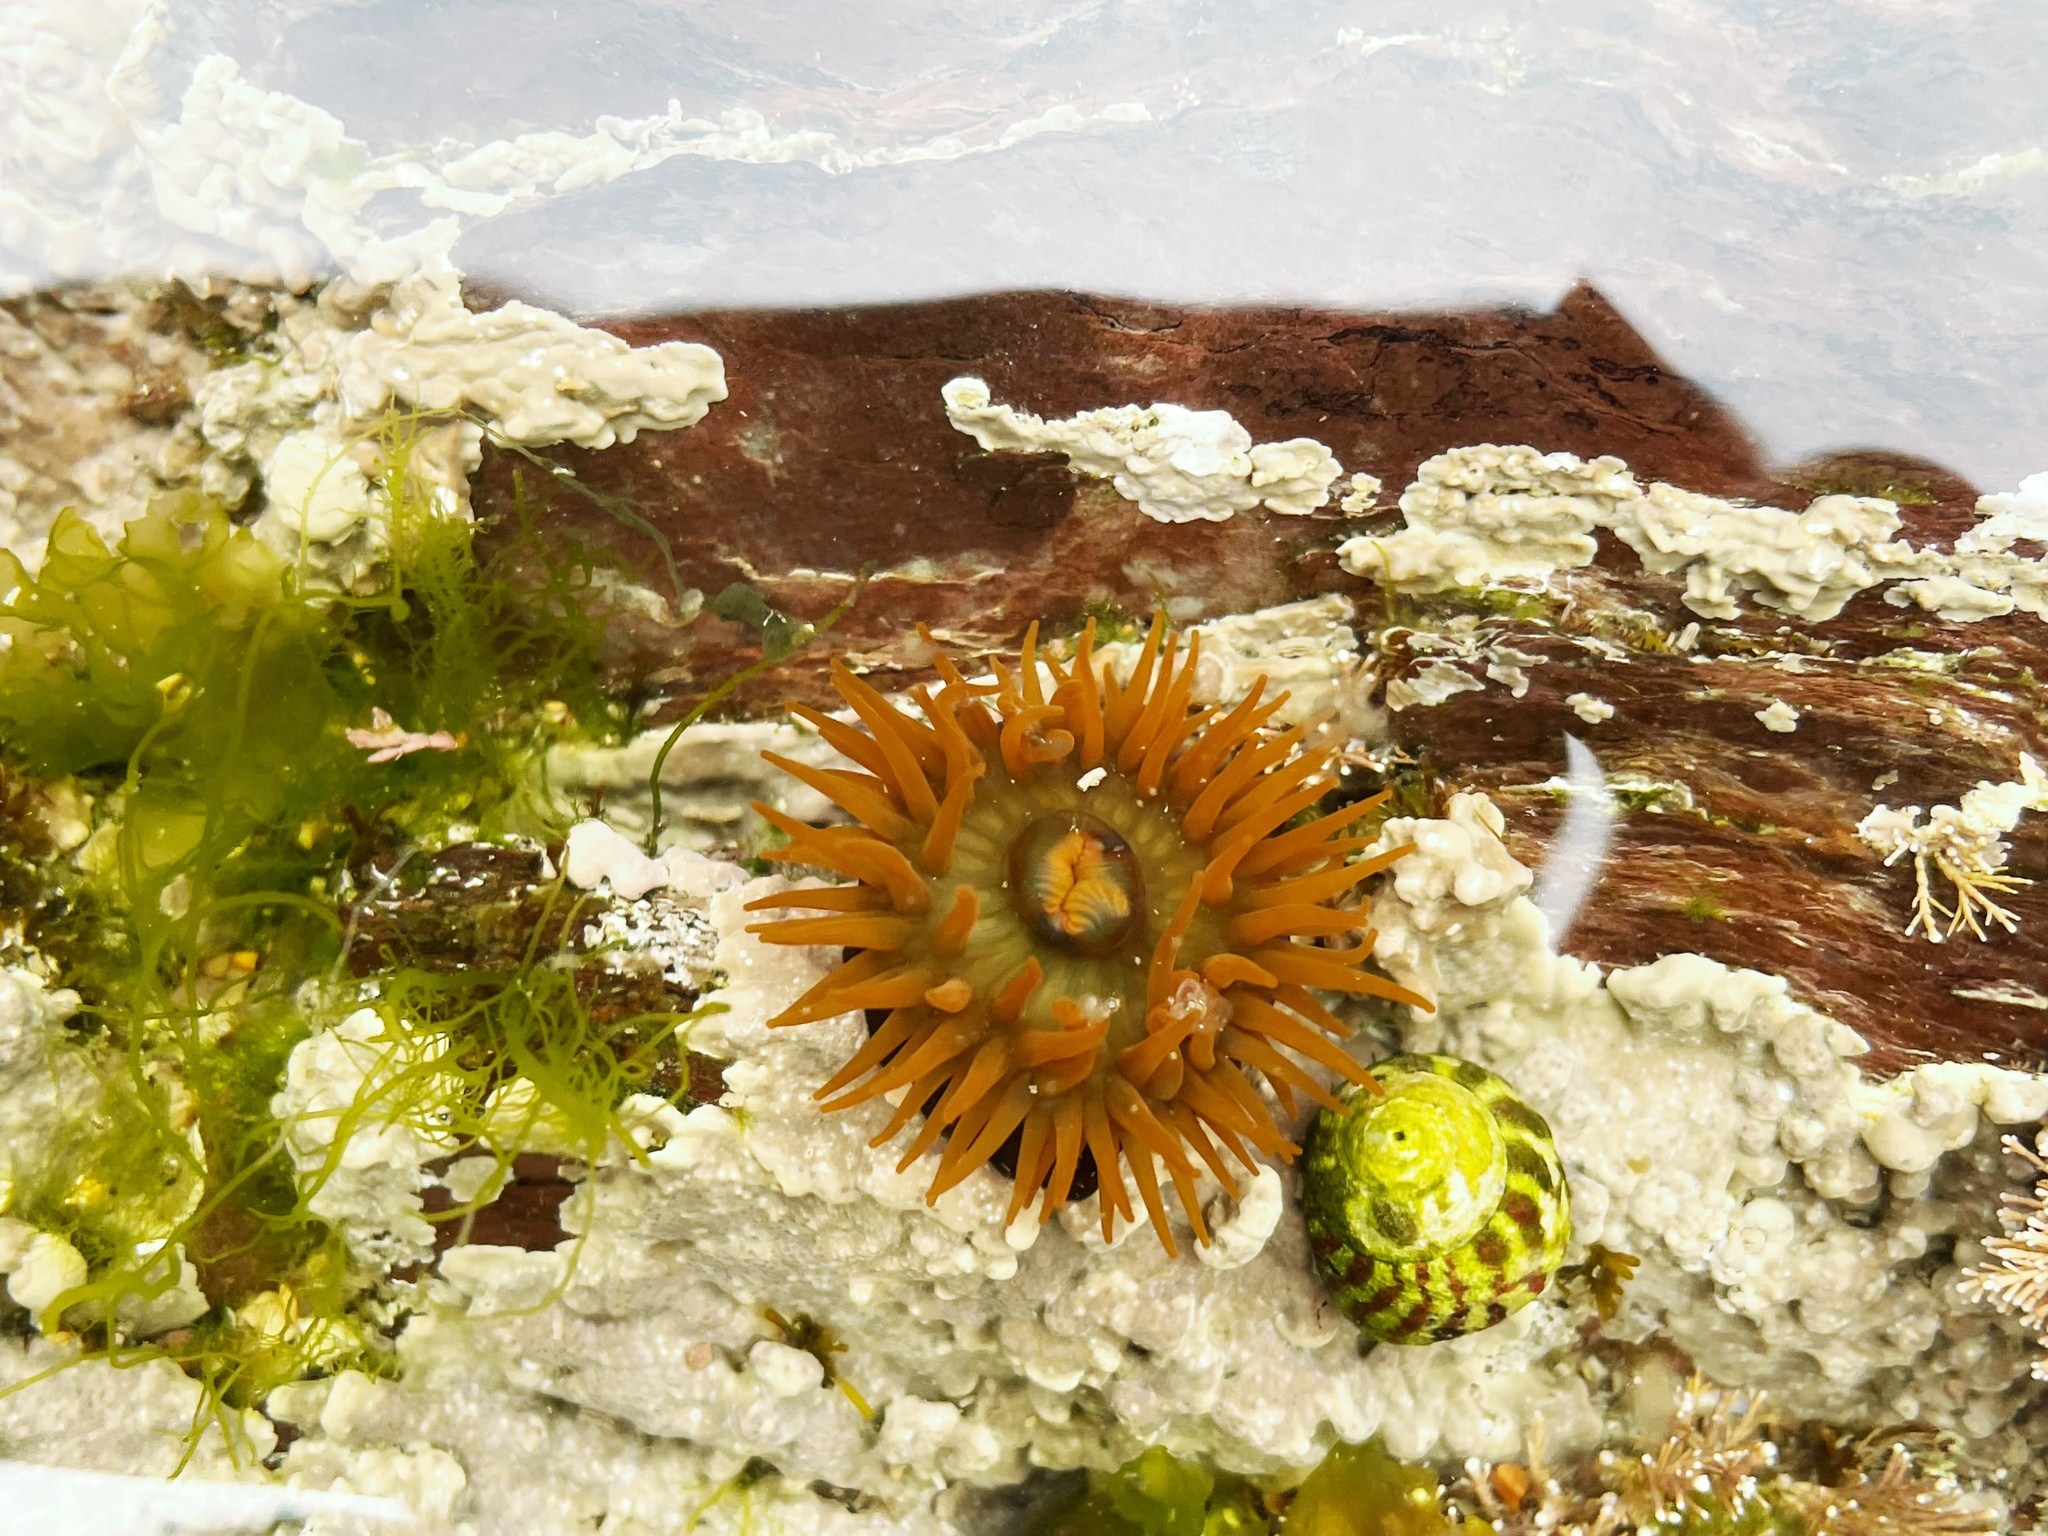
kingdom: Animalia
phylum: Cnidaria
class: Anthozoa
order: Actiniaria
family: Actiniidae
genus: Actinia
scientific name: Actinia equina
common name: Beadlet anemone
